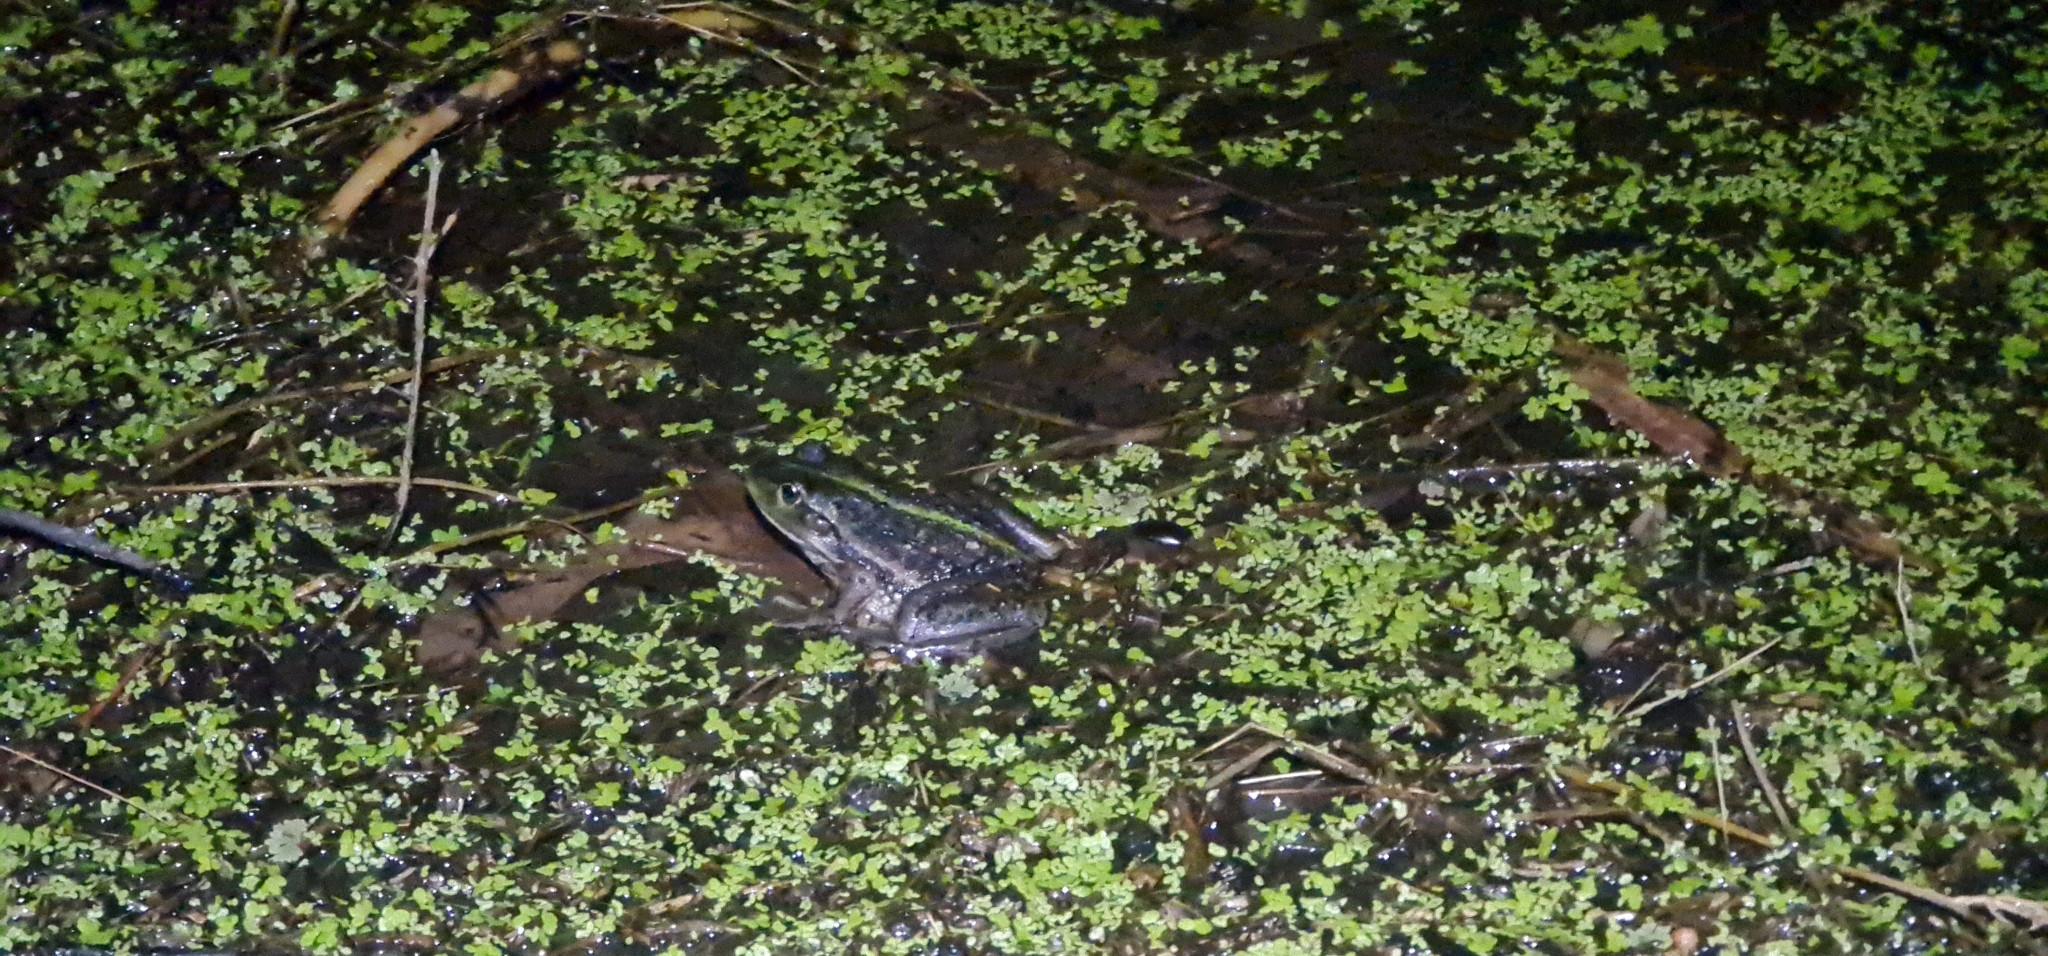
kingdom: Animalia
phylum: Chordata
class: Amphibia
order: Anura
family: Pelodryadidae
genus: Ranoidea
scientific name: Ranoidea raniformis
